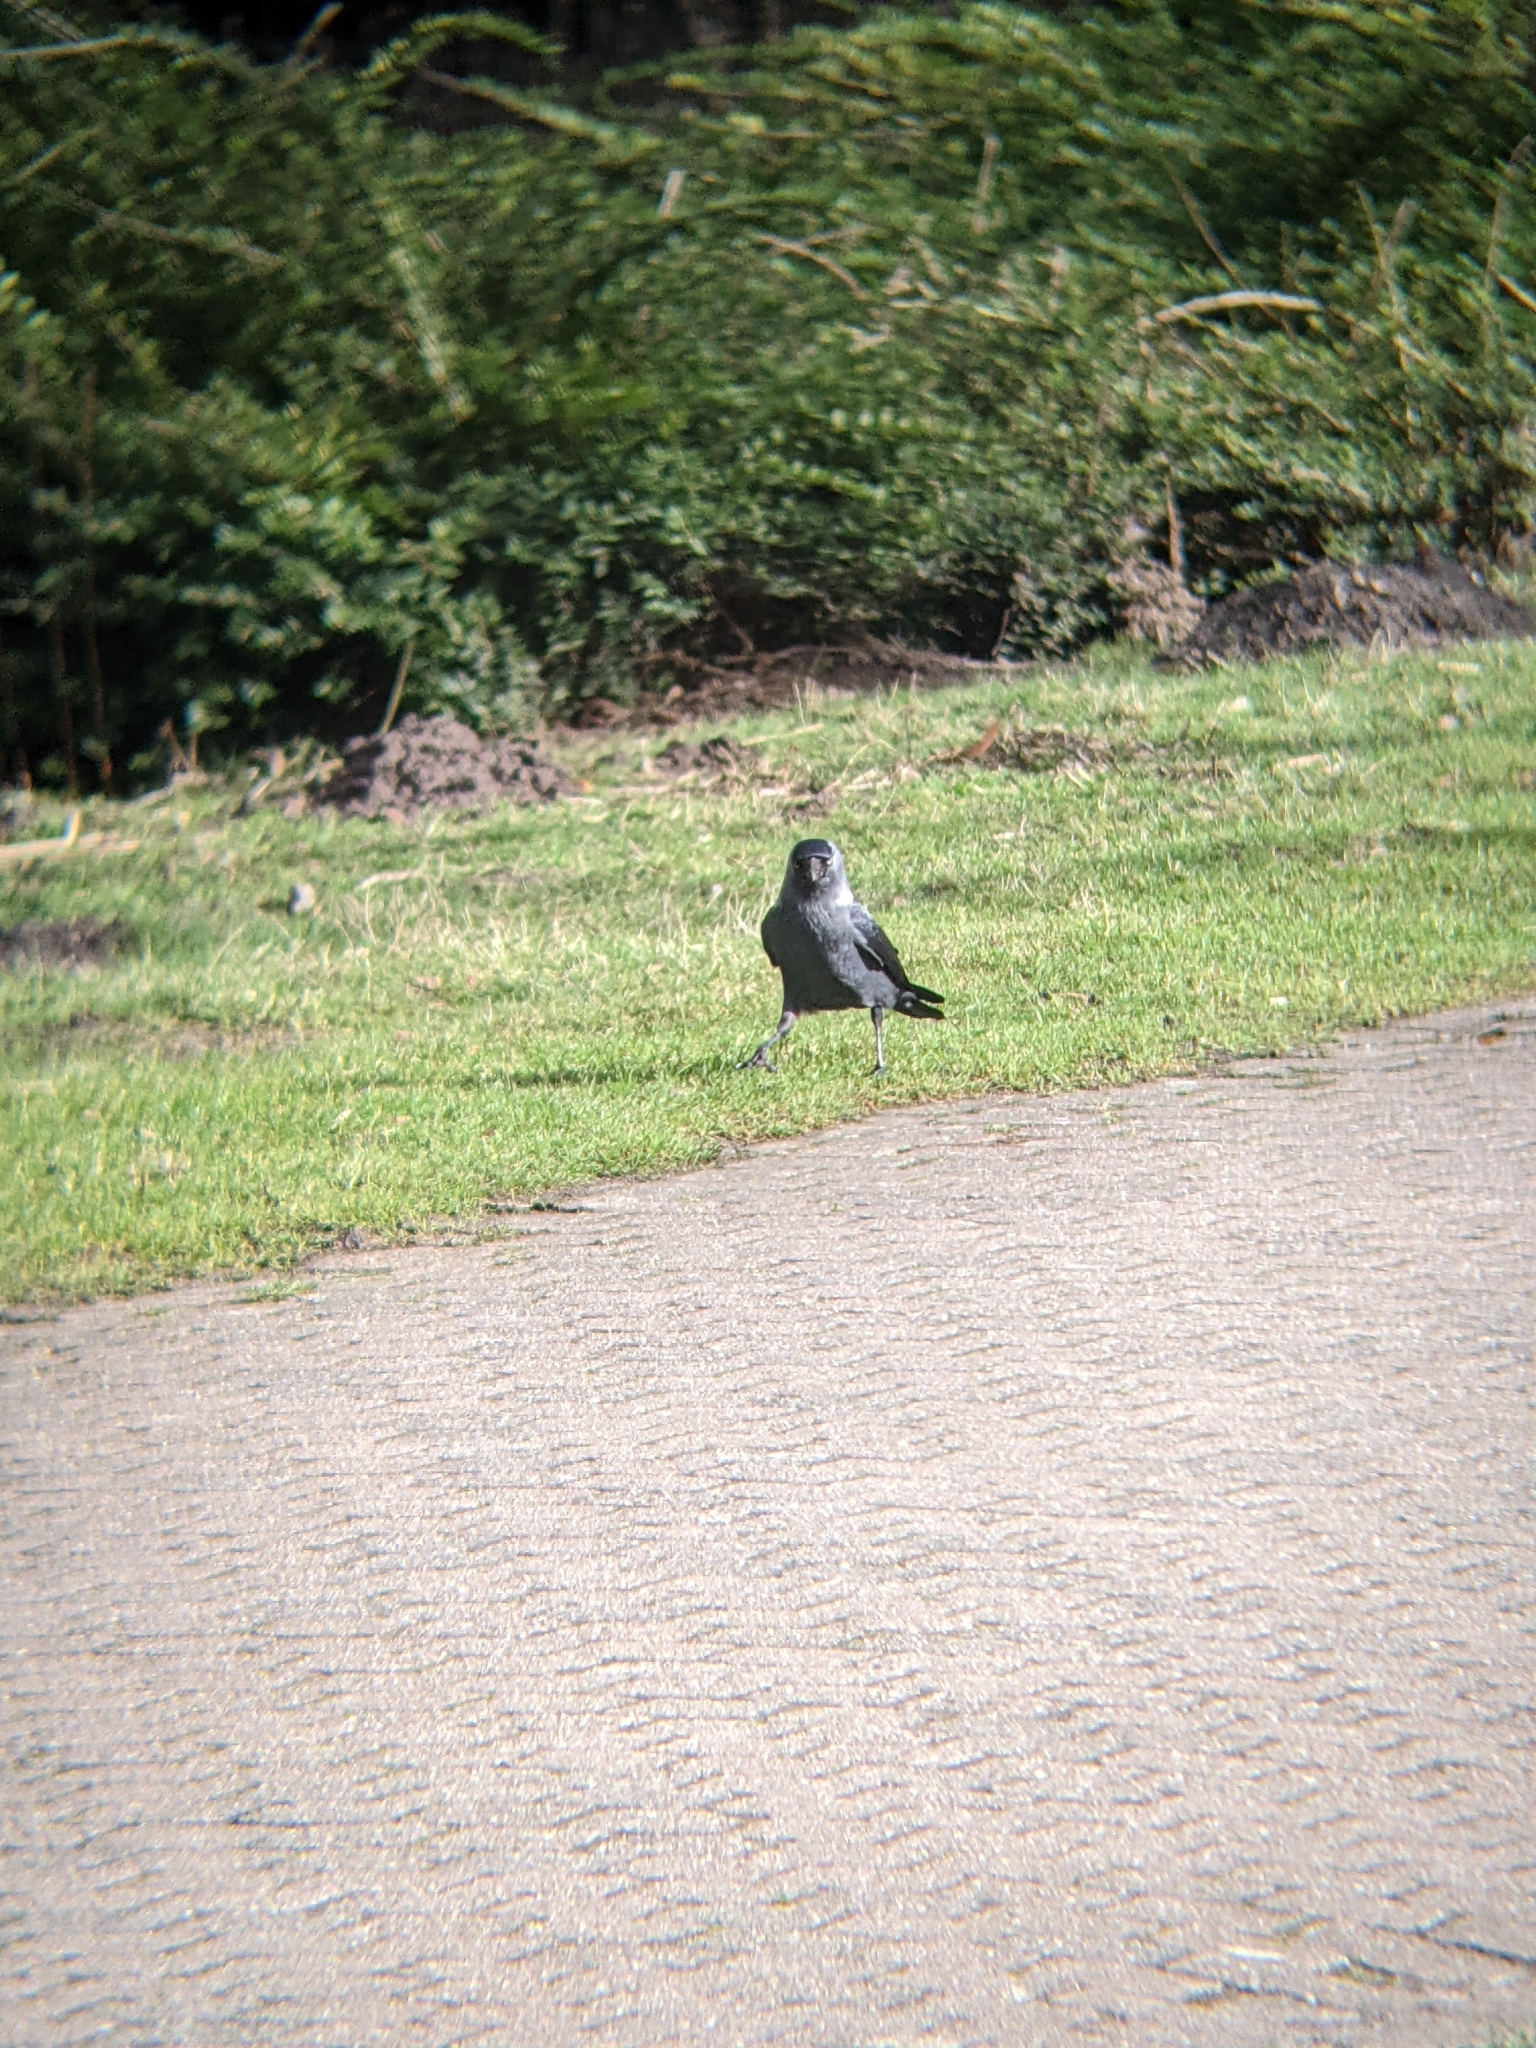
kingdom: Animalia
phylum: Chordata
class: Aves
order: Passeriformes
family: Corvidae
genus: Coloeus
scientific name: Coloeus monedula
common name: Western jackdaw
